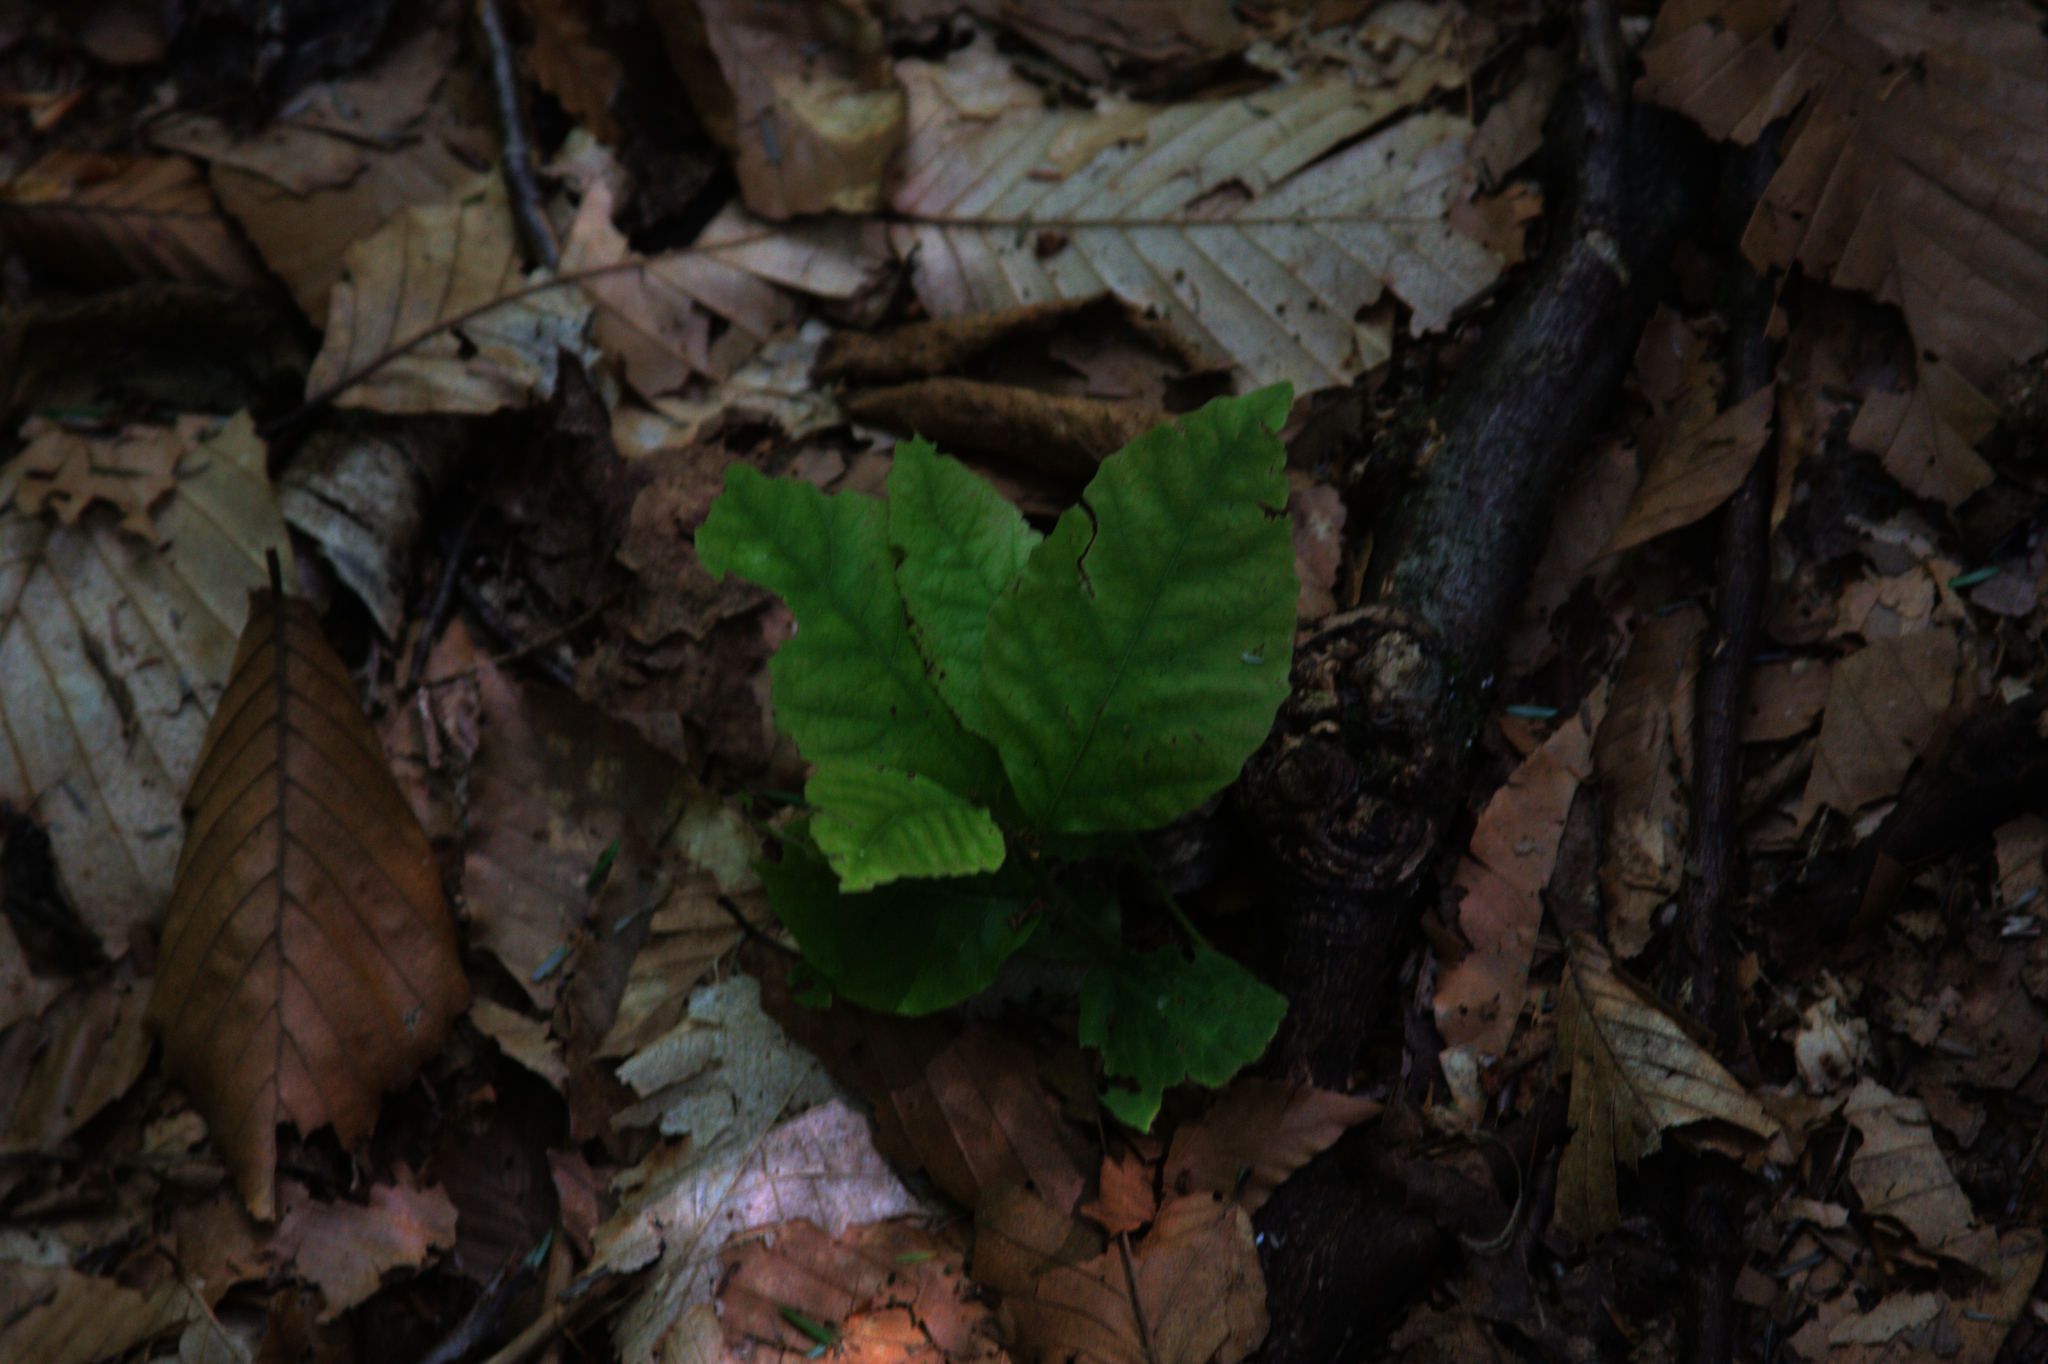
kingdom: Plantae
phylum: Tracheophyta
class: Magnoliopsida
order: Fagales
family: Fagaceae
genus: Fagus
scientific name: Fagus grandifolia
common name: American beech
